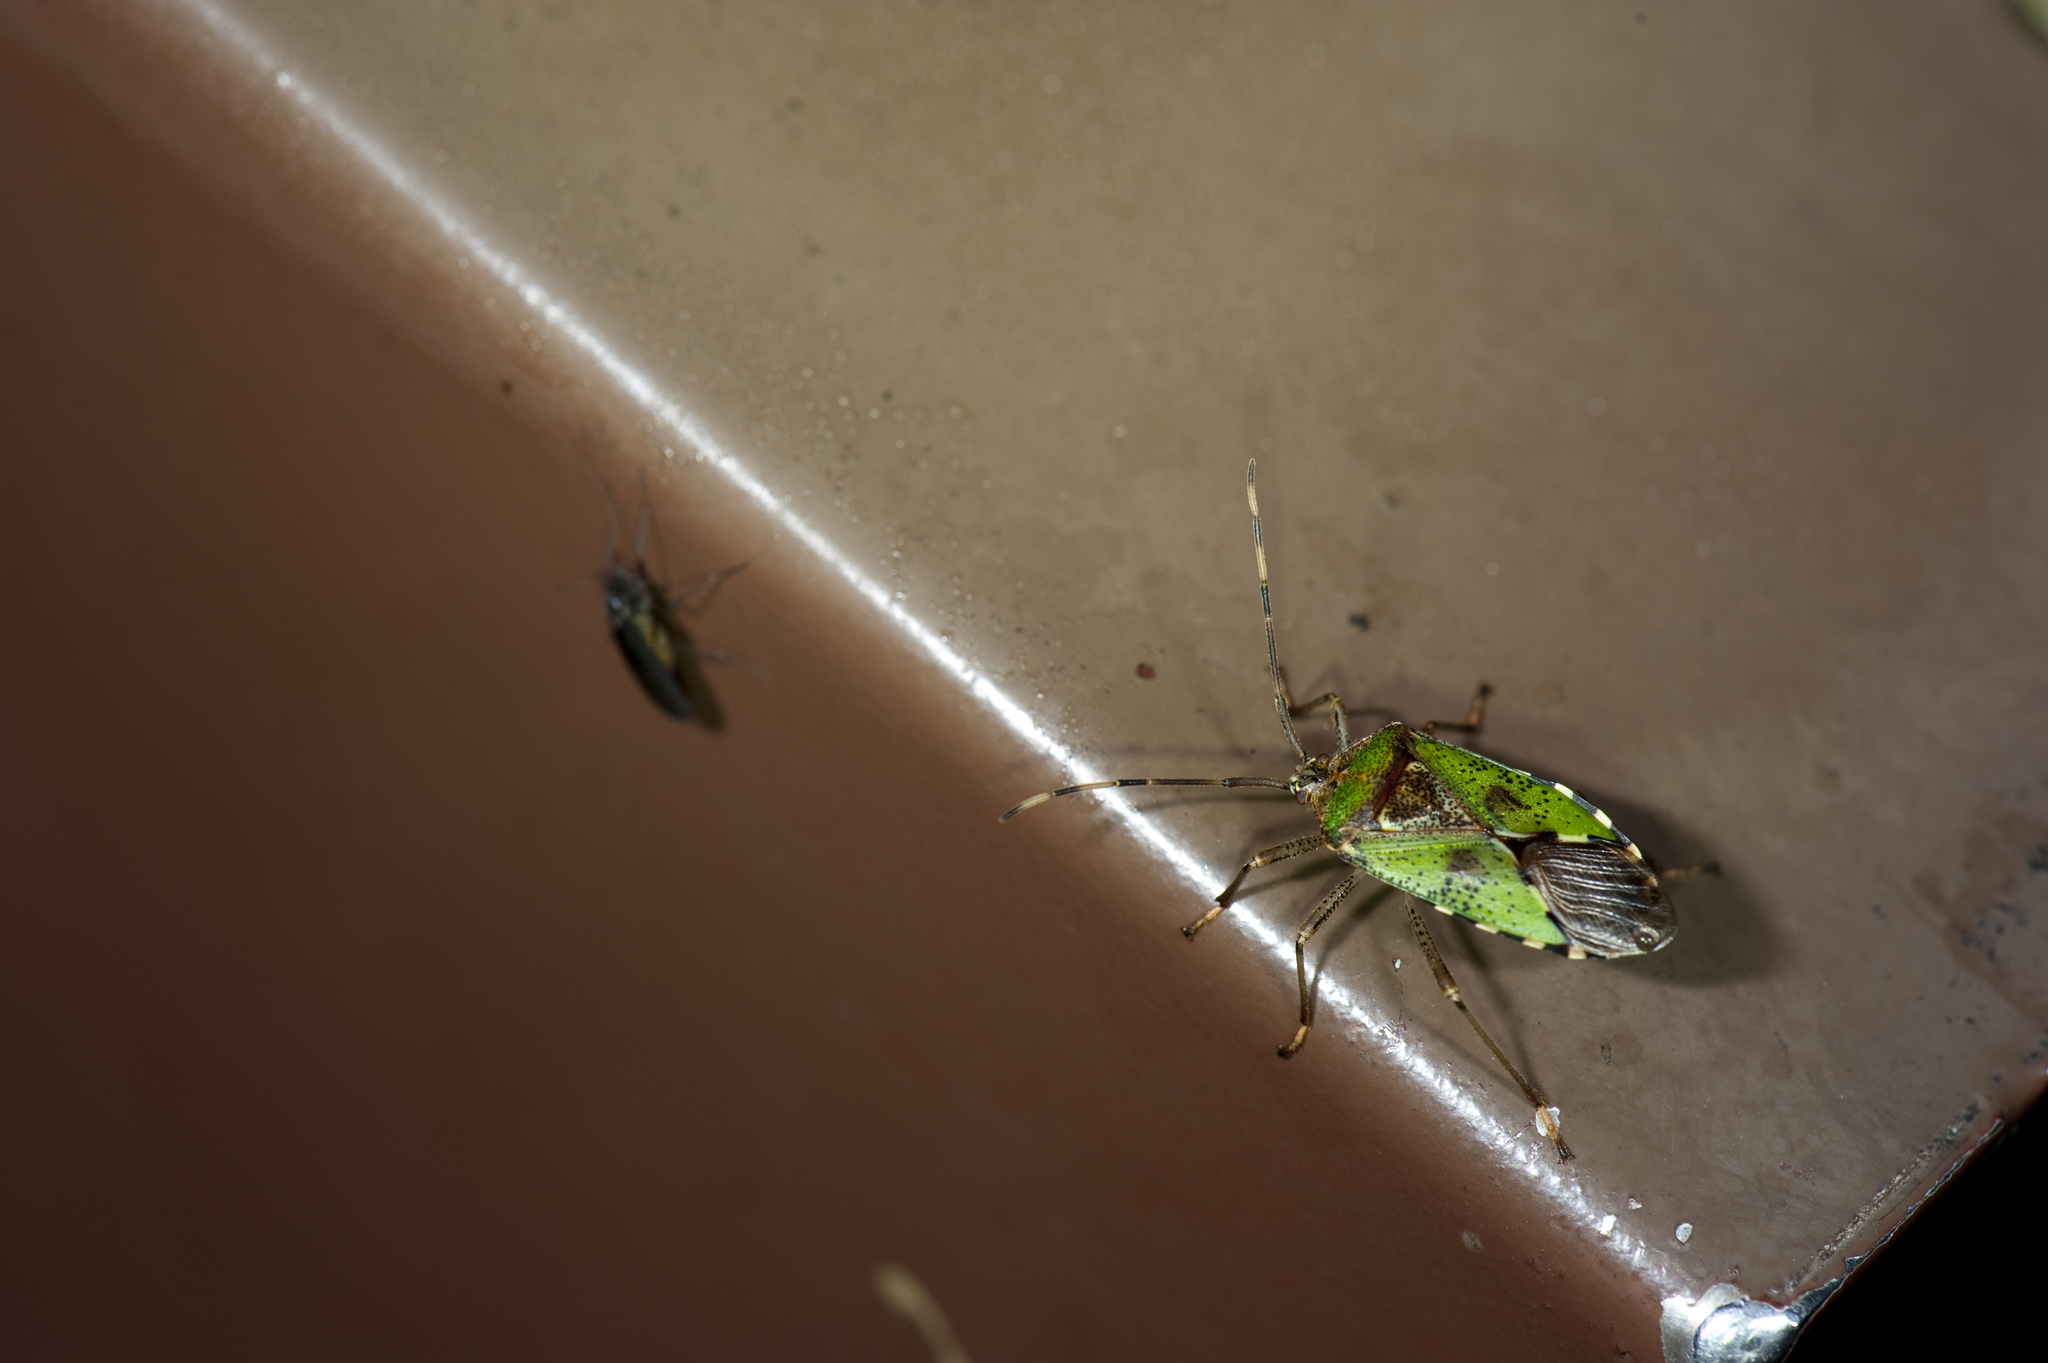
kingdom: Animalia
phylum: Arthropoda
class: Insecta
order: Hemiptera
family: Urostylididae
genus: Urochela
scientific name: Urochela strandi
